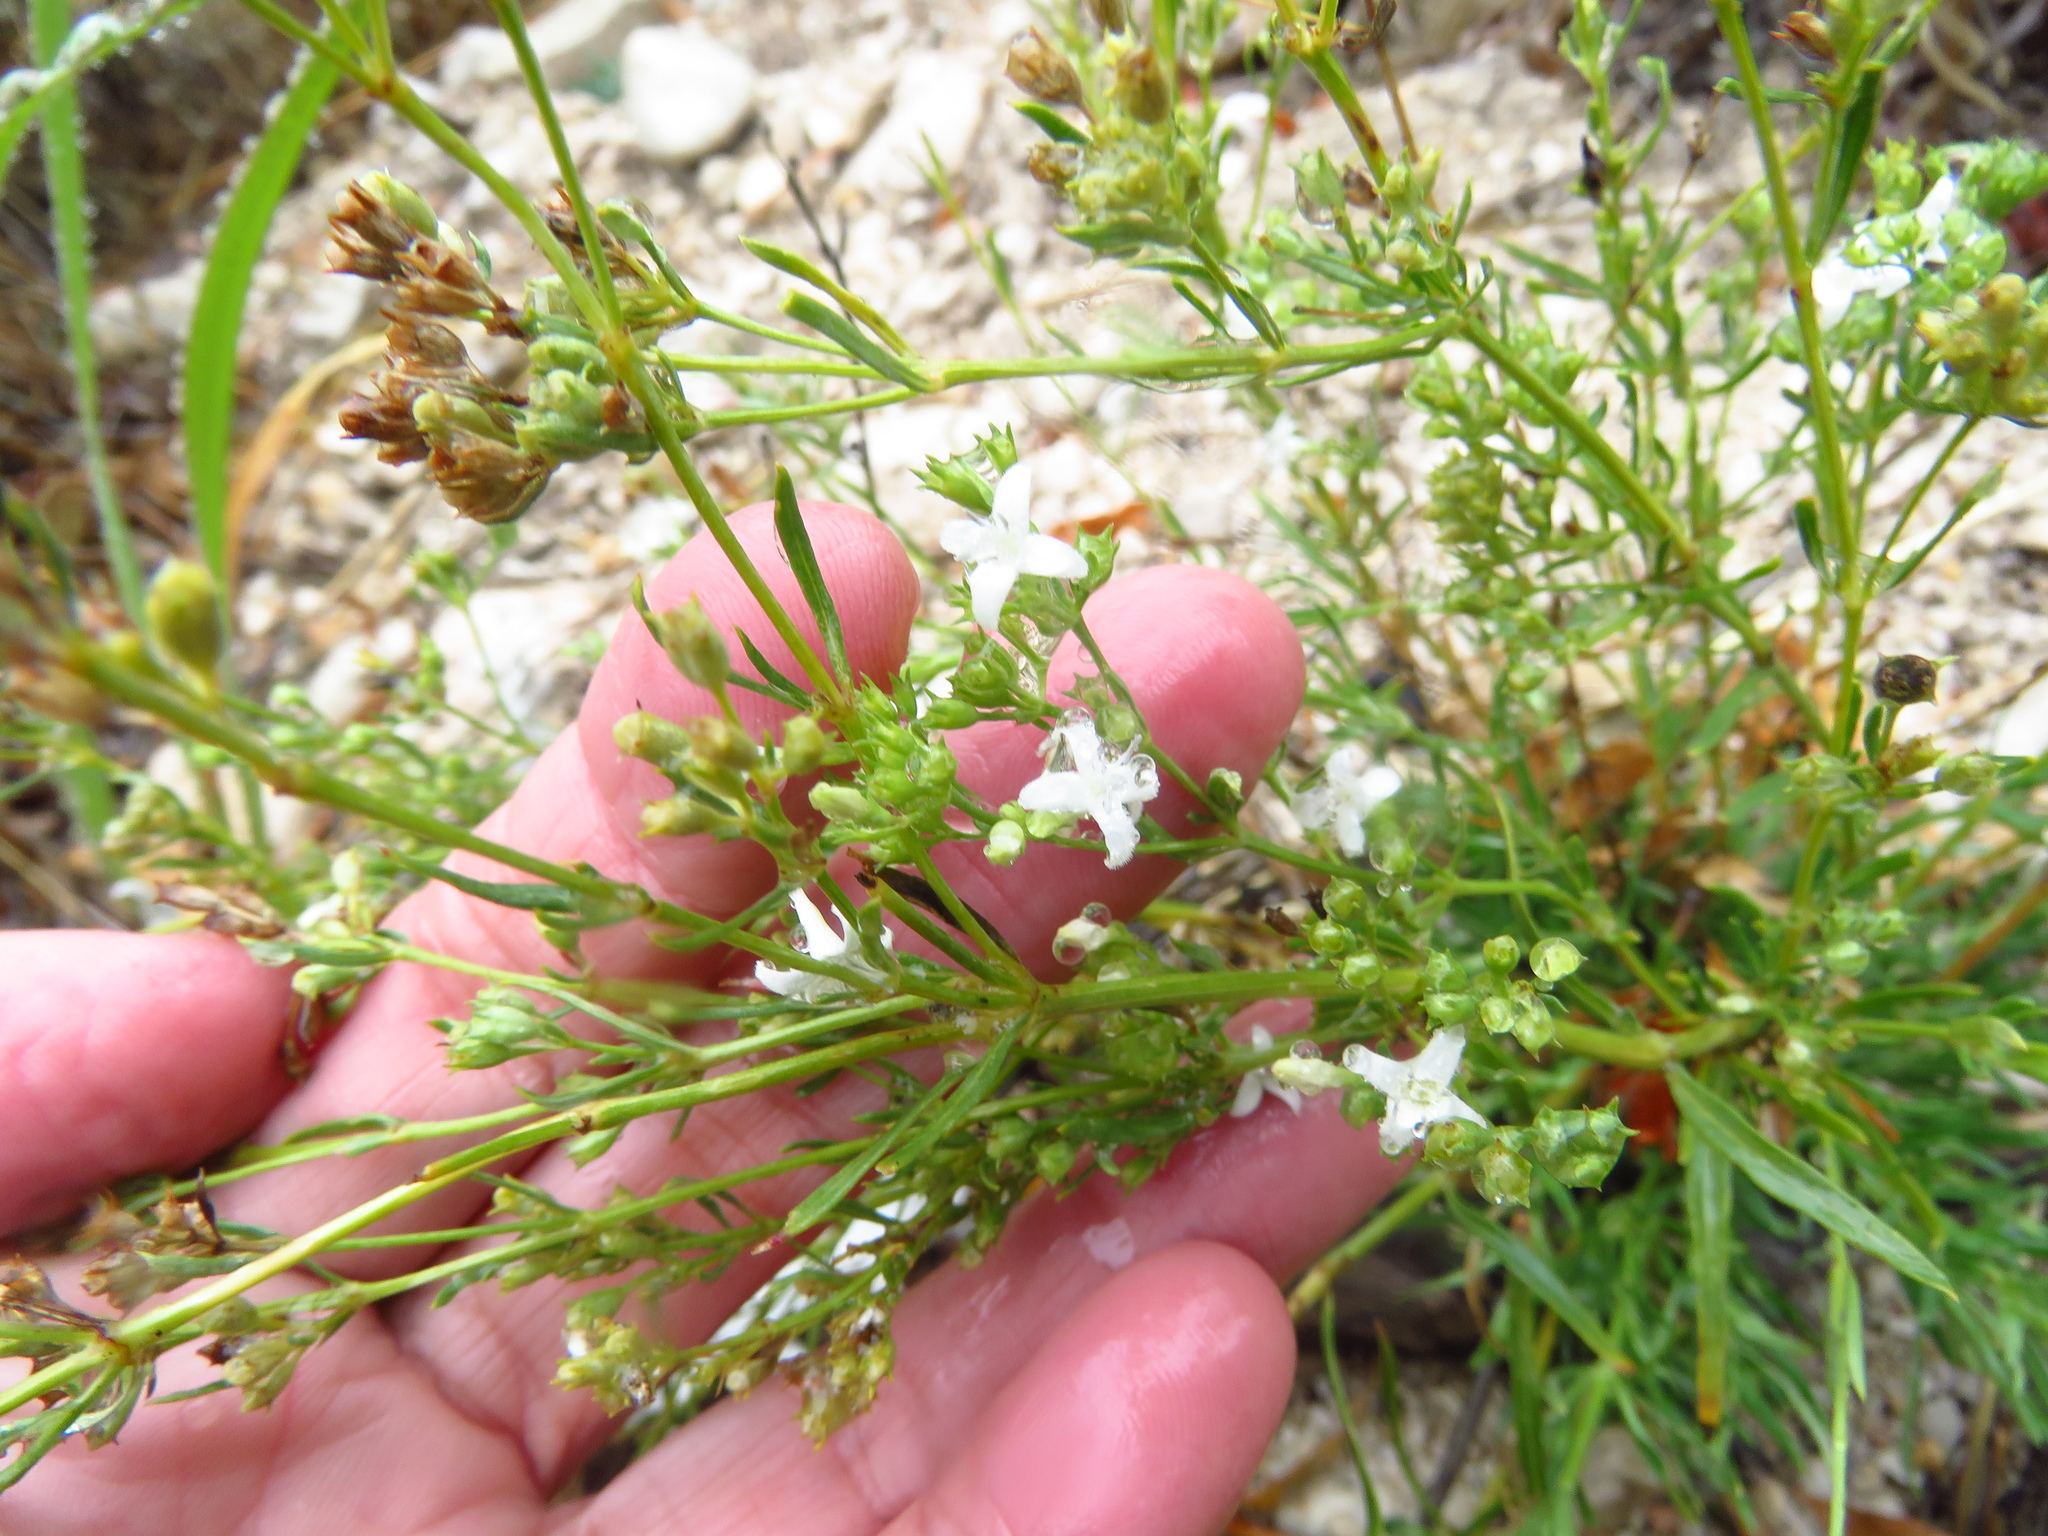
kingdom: Plantae
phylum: Tracheophyta
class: Magnoliopsida
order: Gentianales
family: Rubiaceae
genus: Stenaria
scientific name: Stenaria nigricans
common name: Diamondflowers
